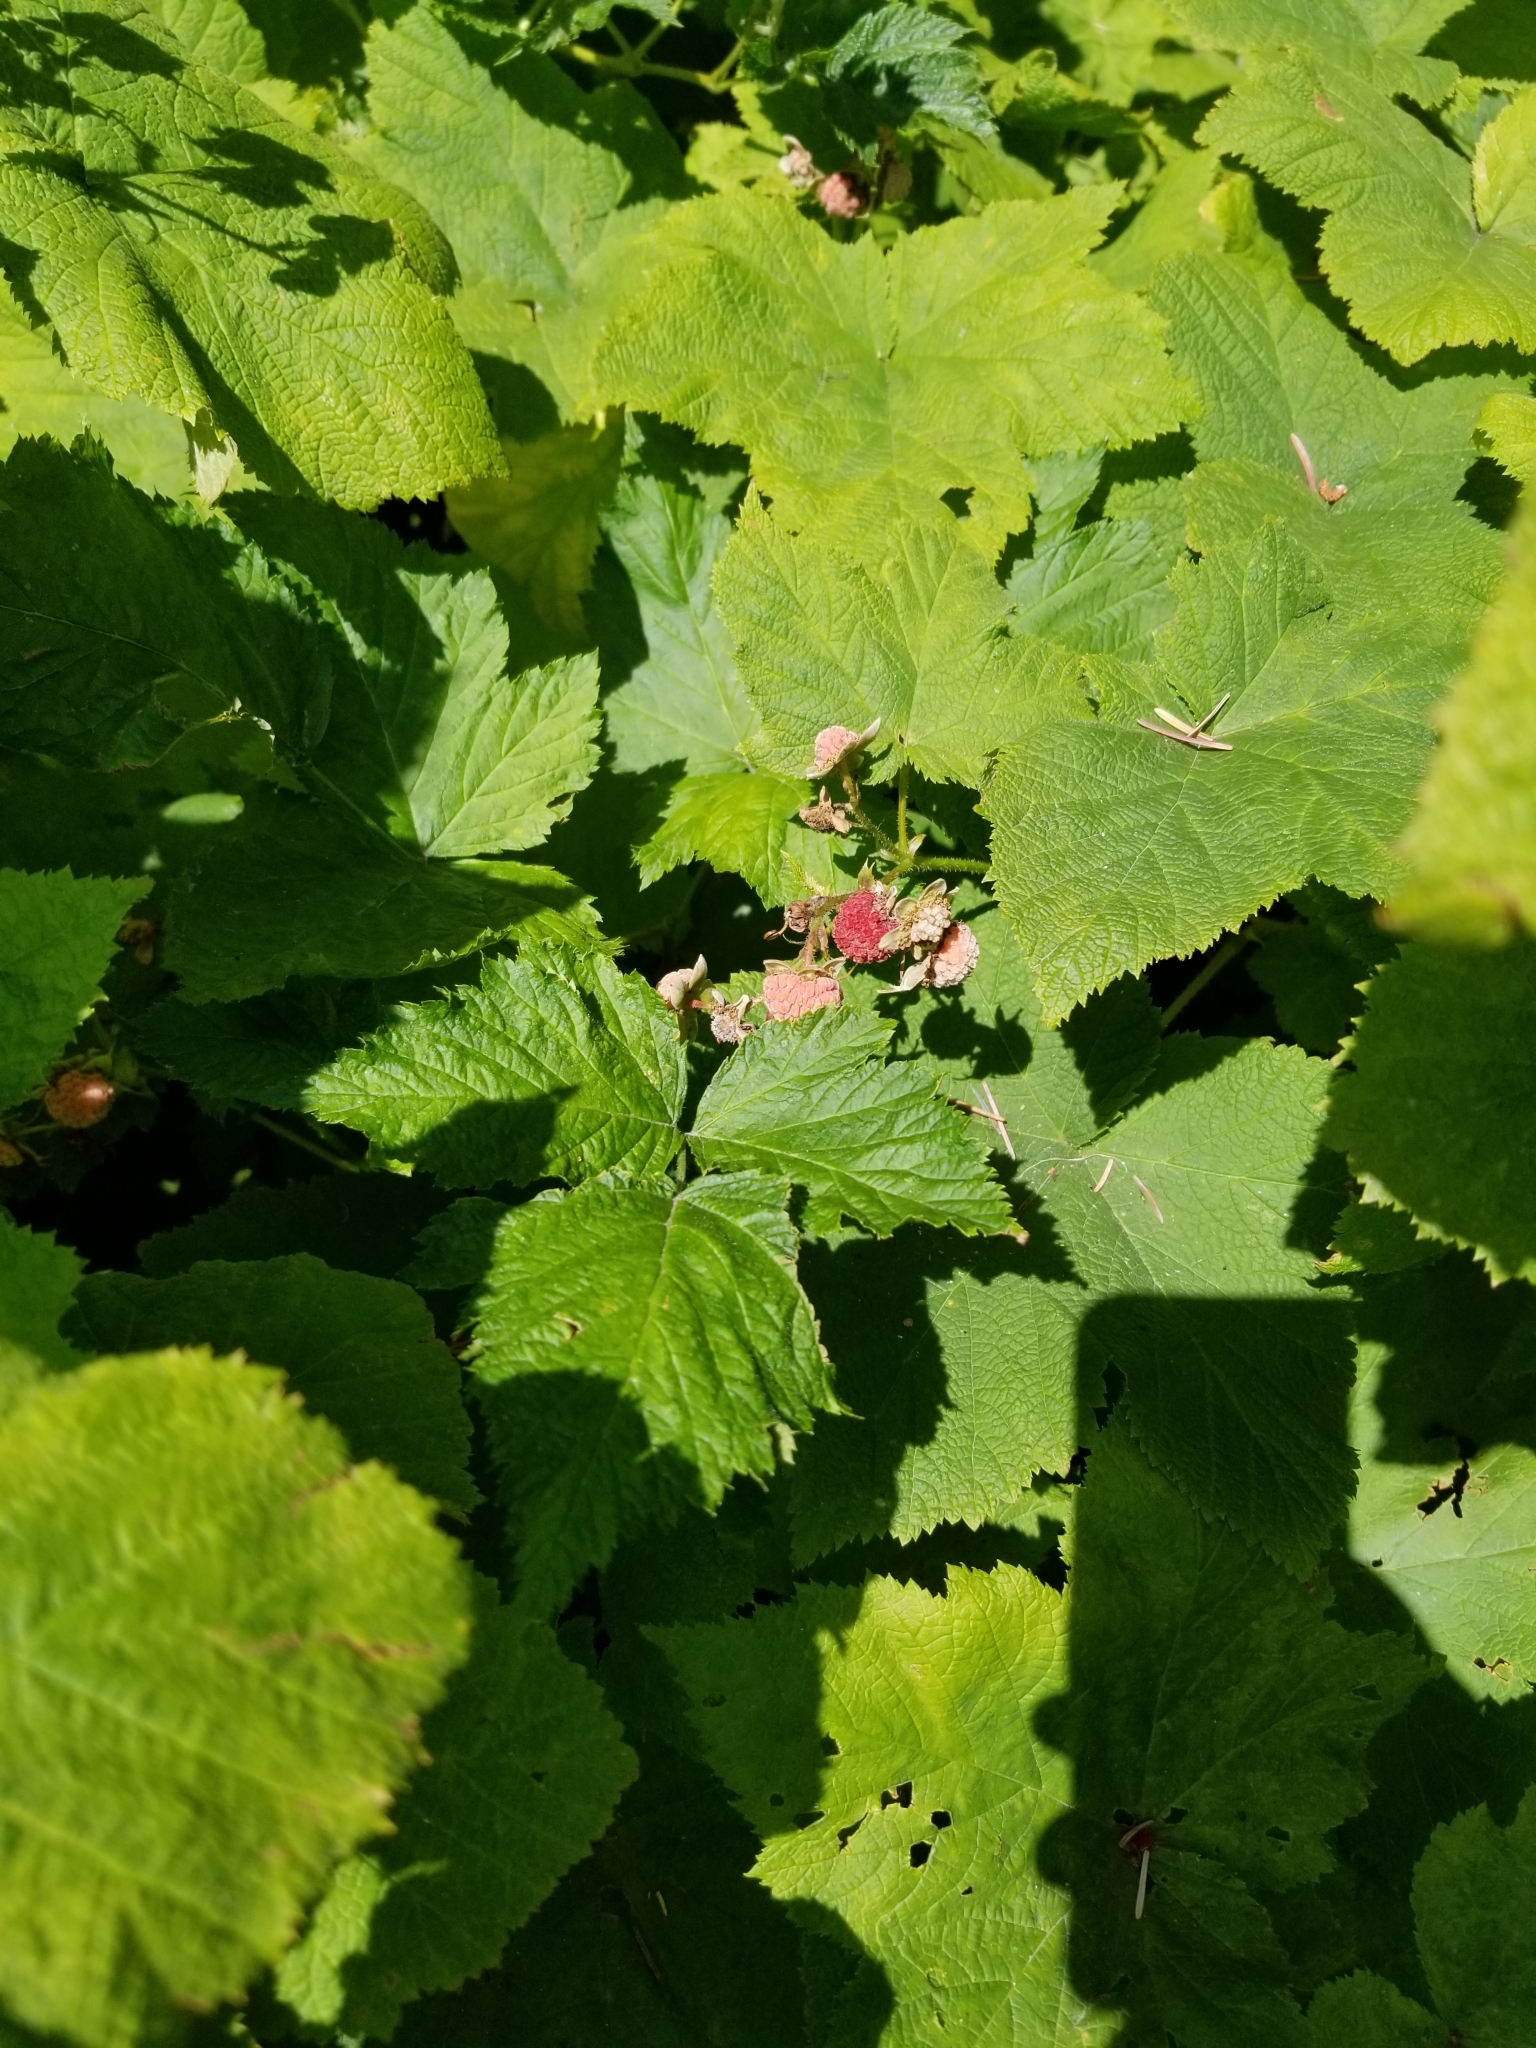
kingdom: Plantae
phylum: Tracheophyta
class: Magnoliopsida
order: Rosales
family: Rosaceae
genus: Rubus
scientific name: Rubus parviflorus
